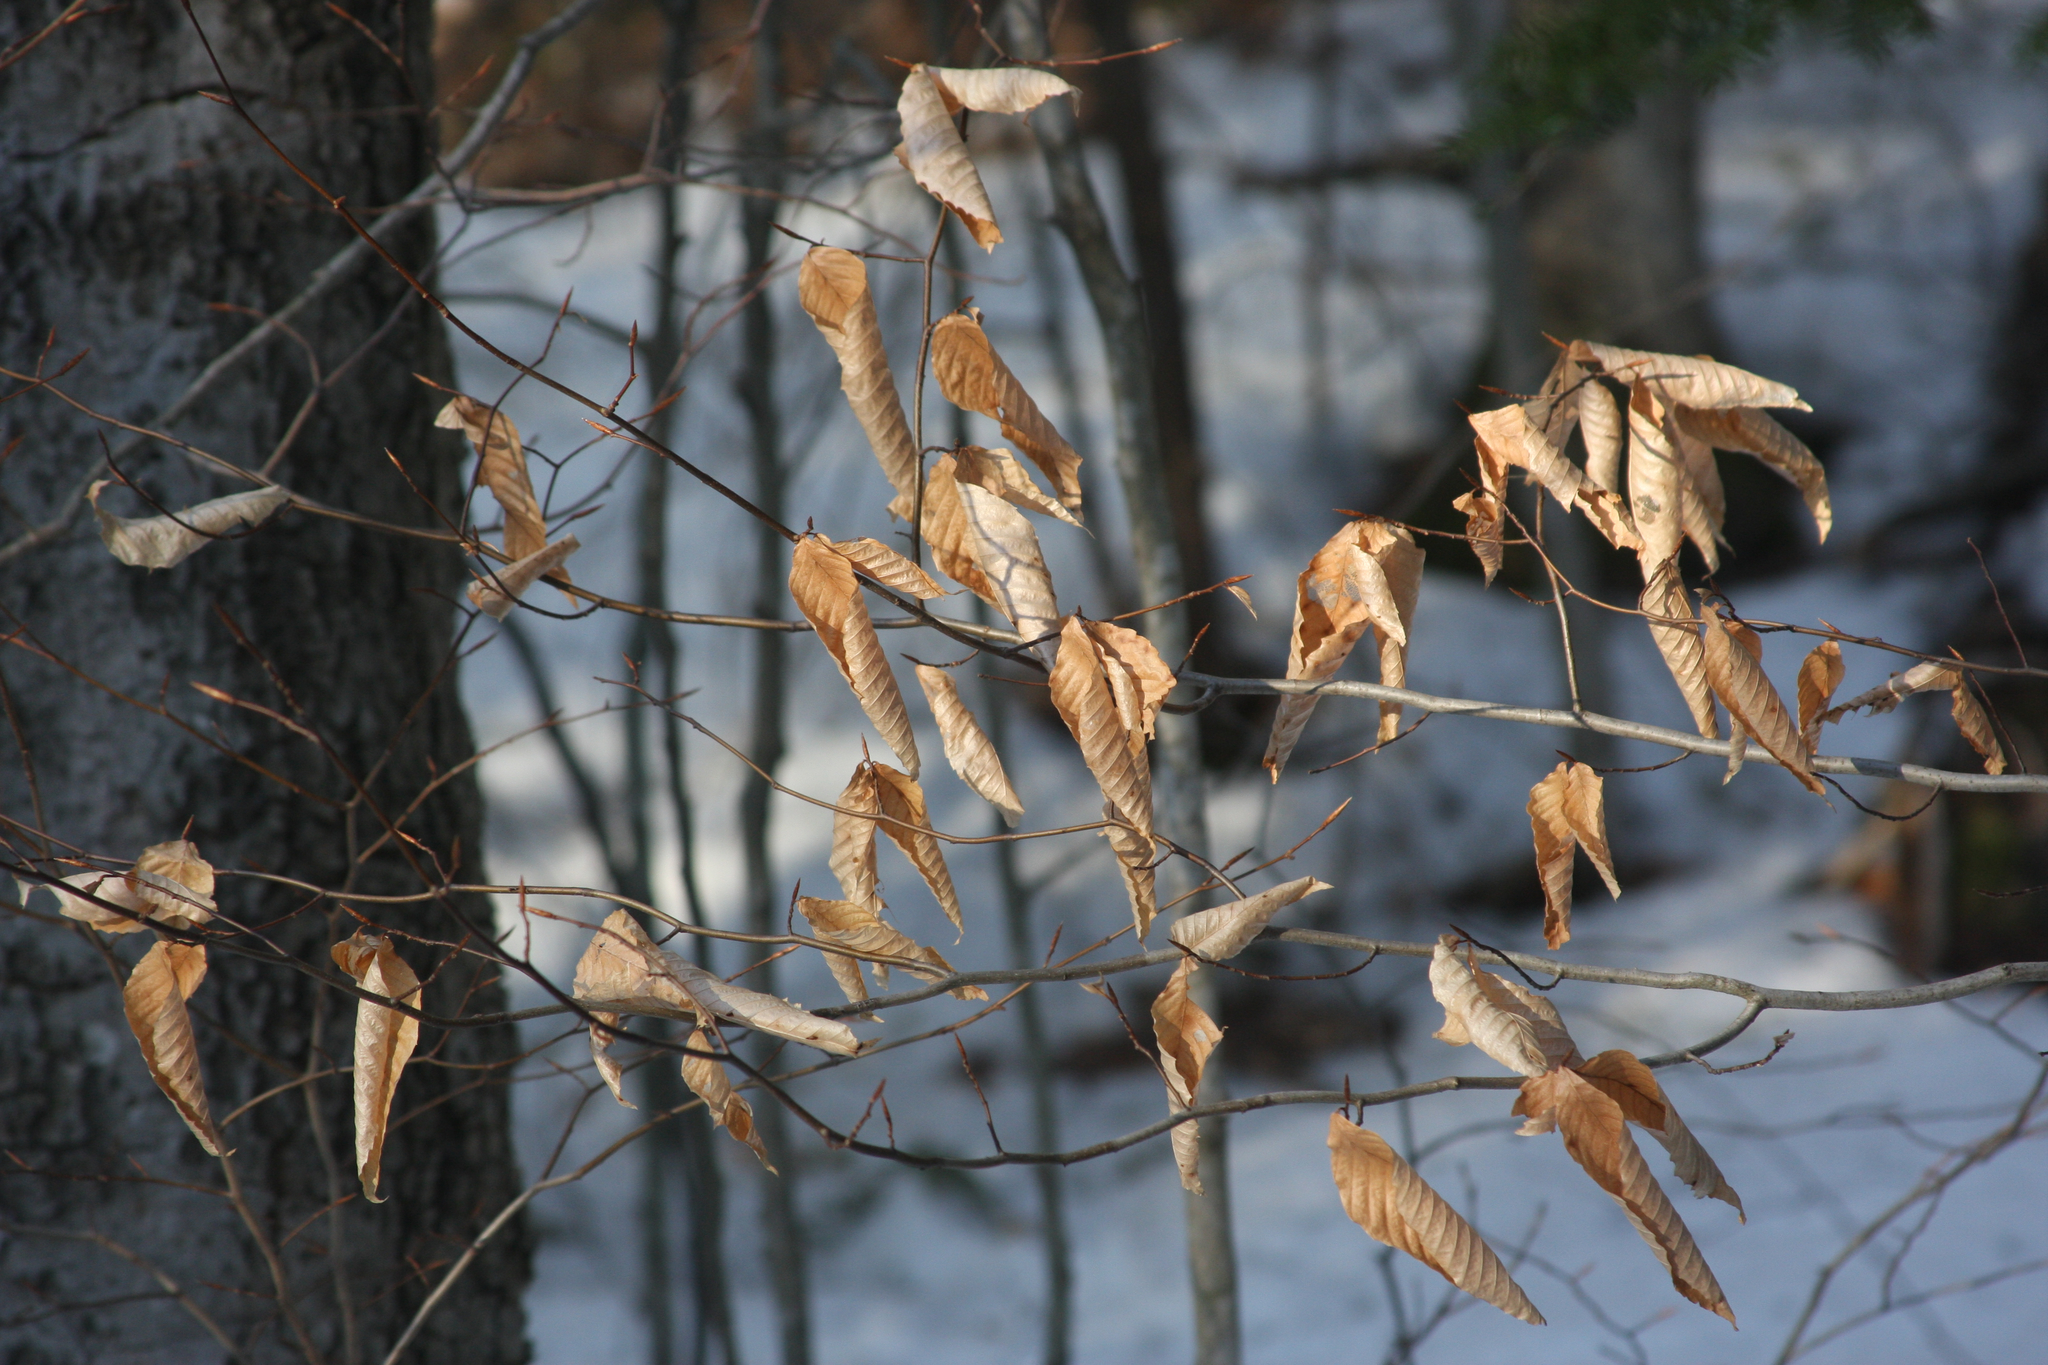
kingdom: Plantae
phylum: Tracheophyta
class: Magnoliopsida
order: Fagales
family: Fagaceae
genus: Fagus
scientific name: Fagus grandifolia
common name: American beech
